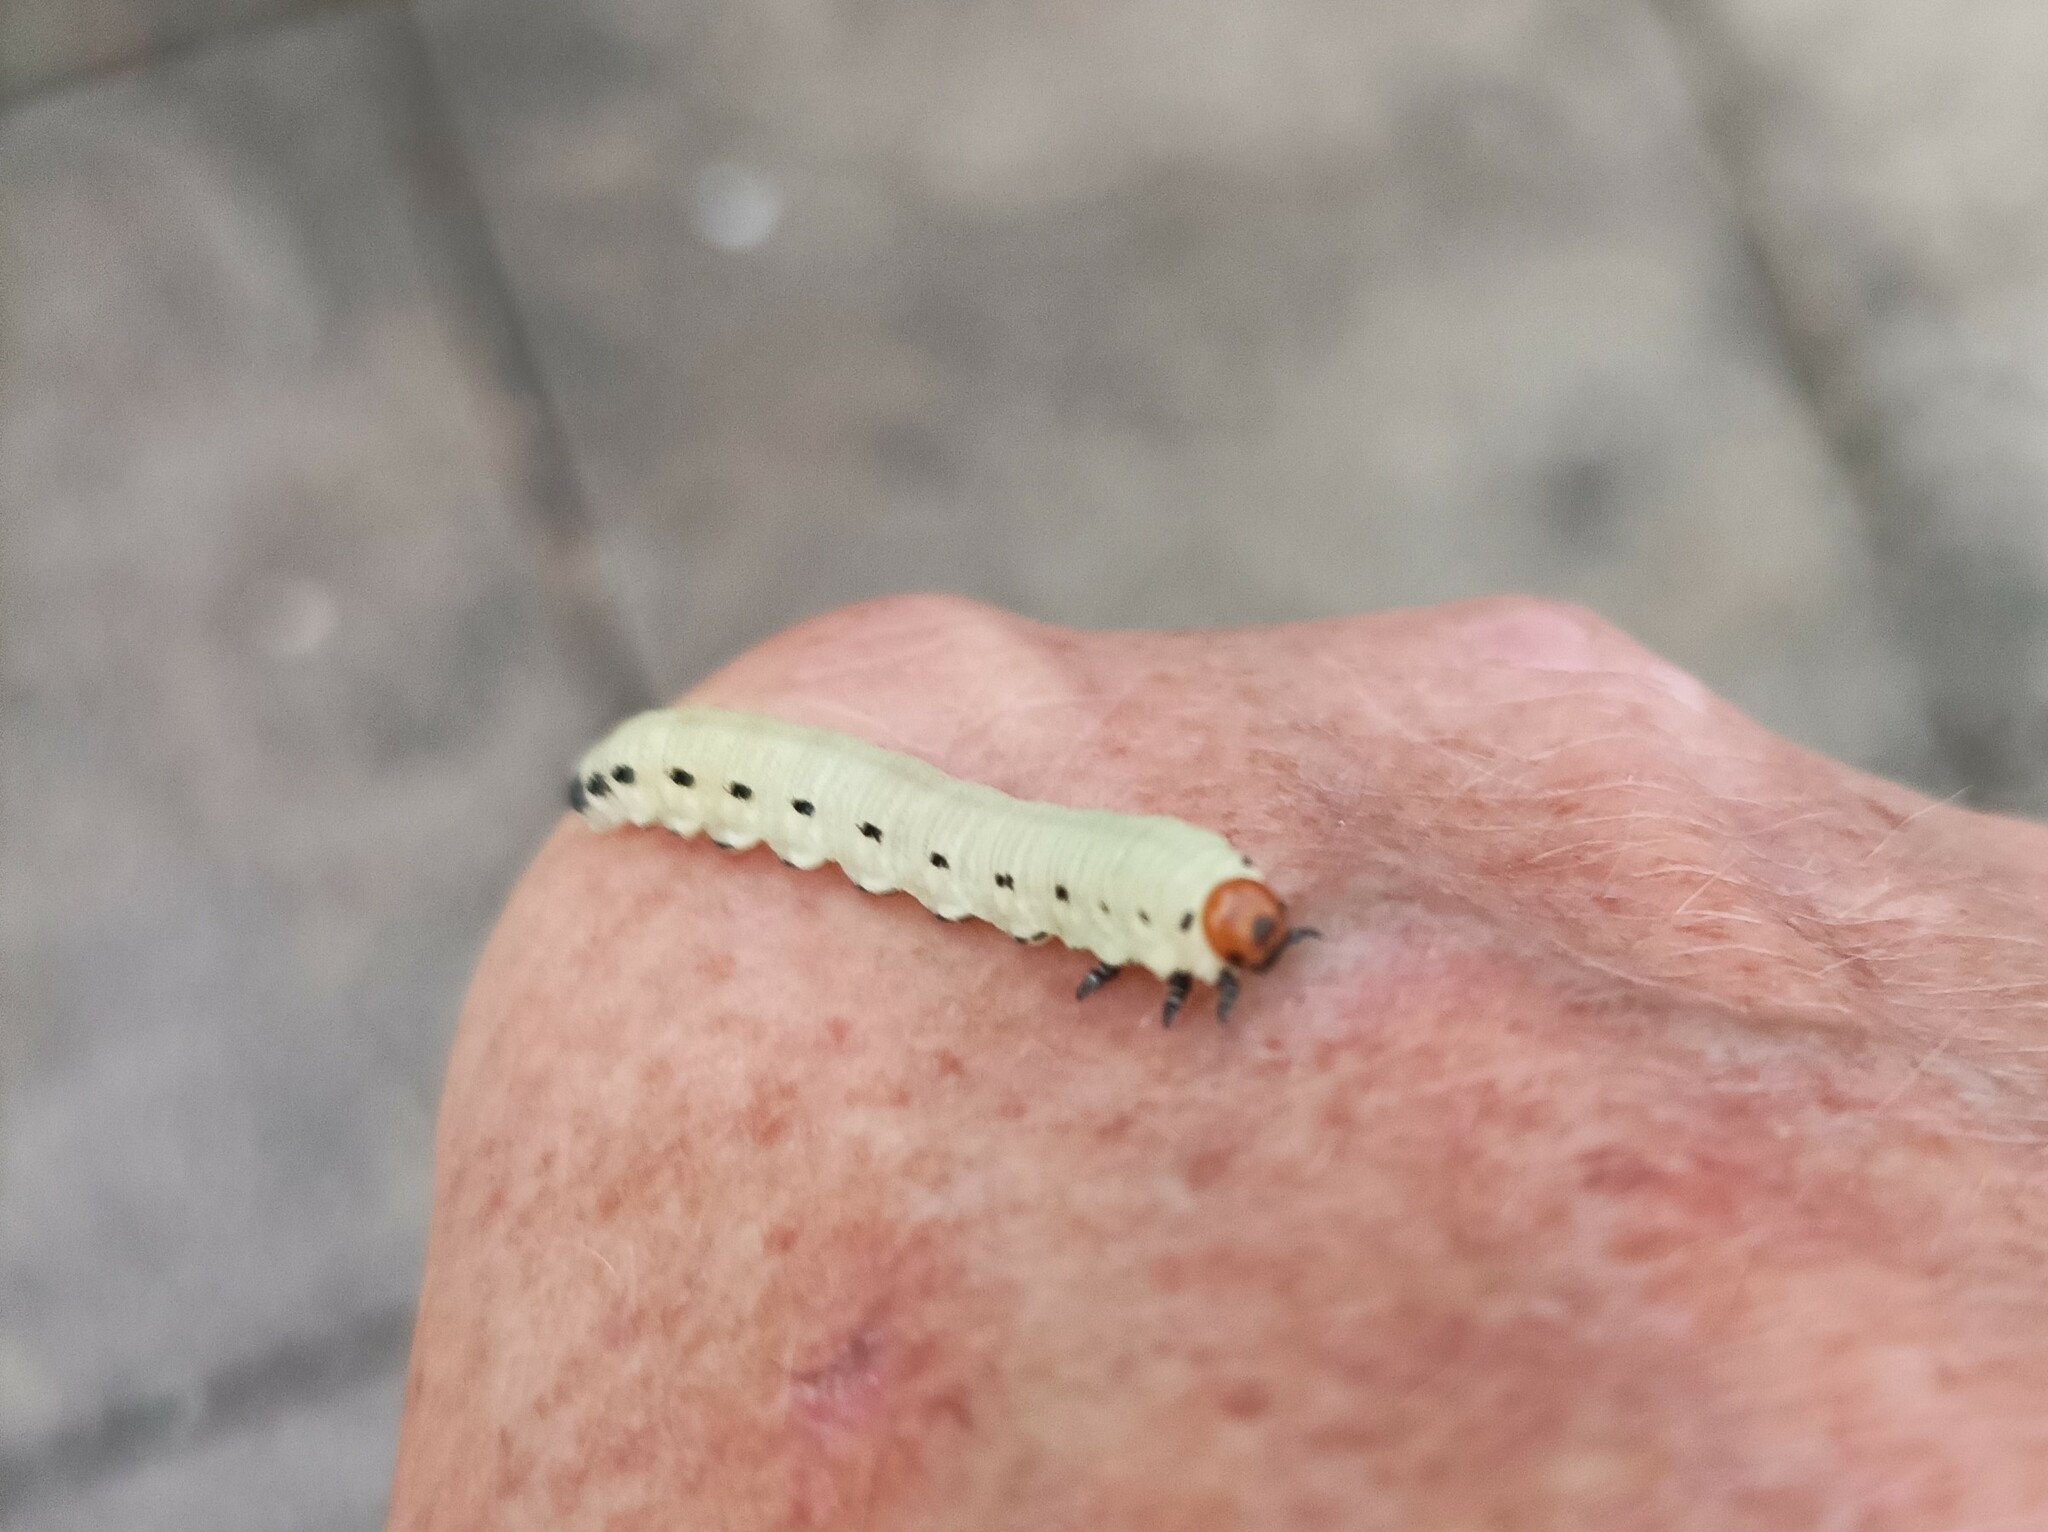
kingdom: Animalia
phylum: Arthropoda
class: Insecta
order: Hymenoptera
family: Diprionidae
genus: Diprion
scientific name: Diprion pini
